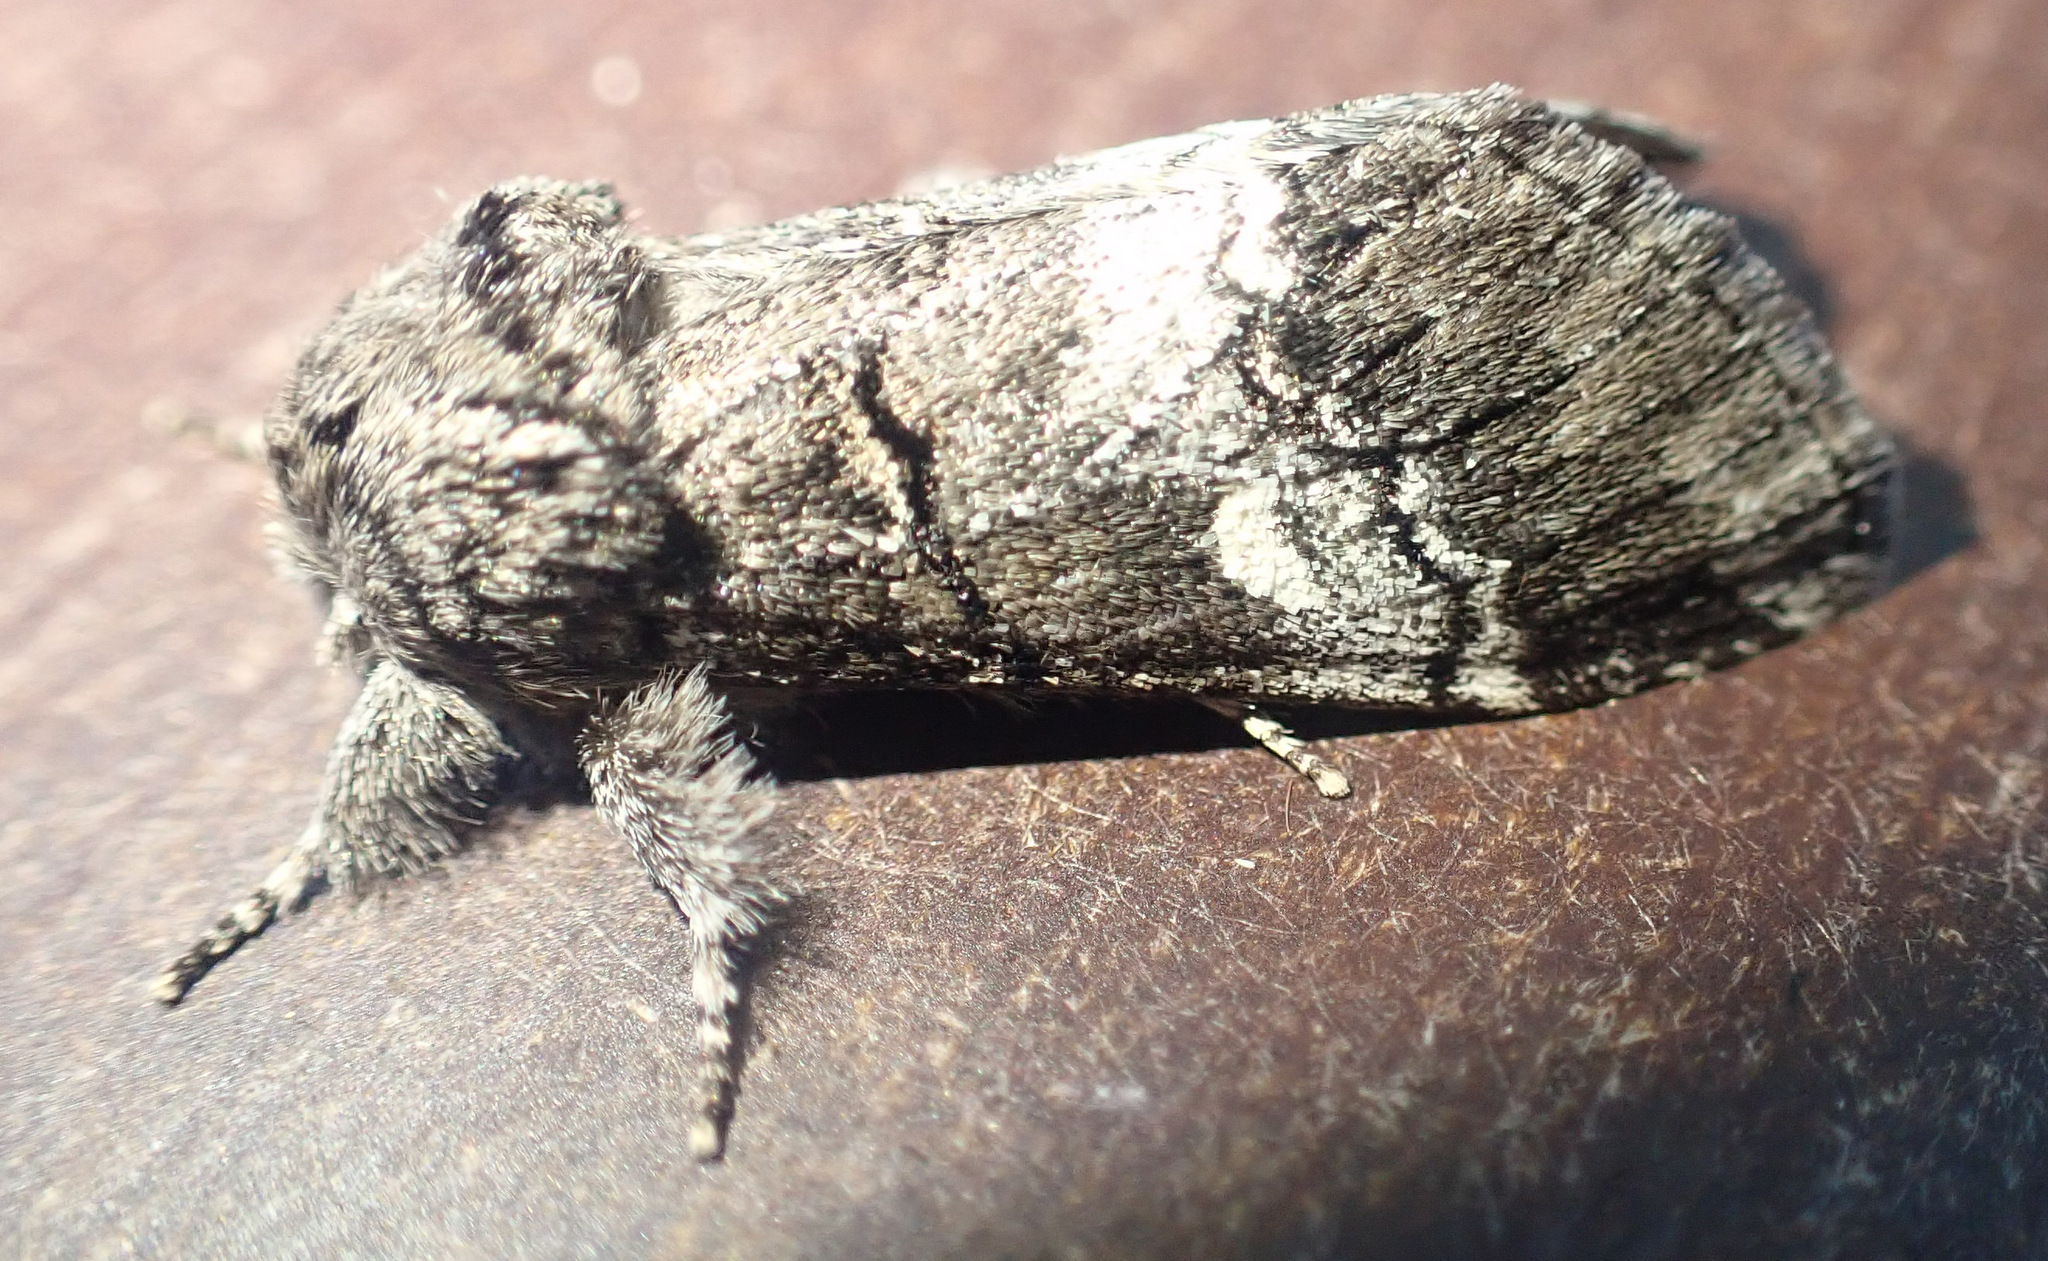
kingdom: Animalia
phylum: Arthropoda
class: Insecta
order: Lepidoptera
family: Notodontidae
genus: Drymonia
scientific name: Drymonia querna
